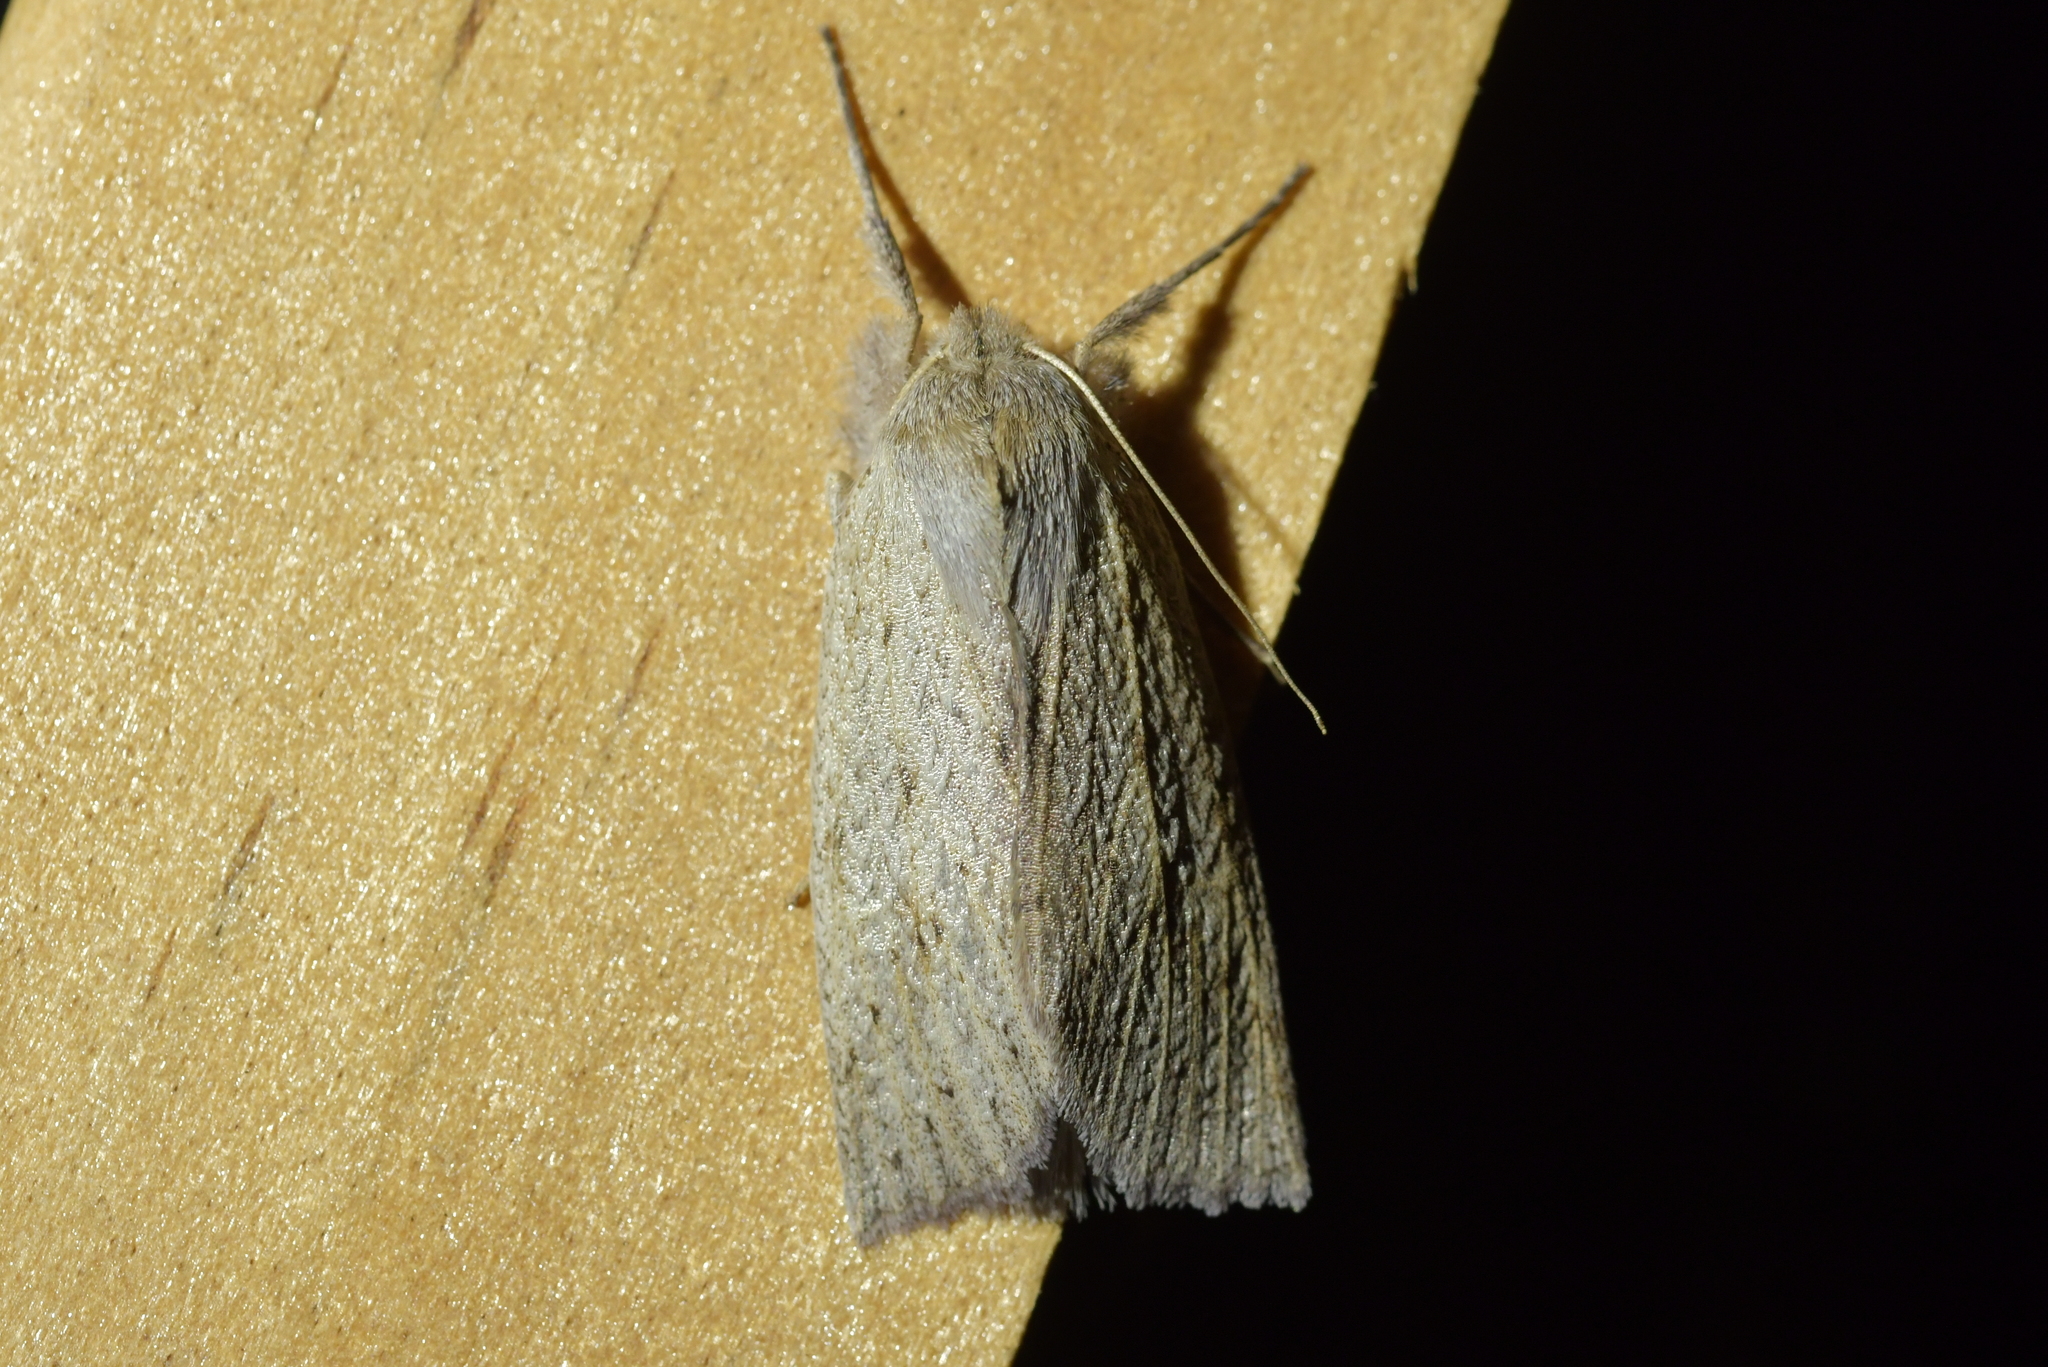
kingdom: Animalia
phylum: Arthropoda
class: Insecta
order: Lepidoptera
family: Geometridae
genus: Declana
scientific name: Declana leptomera
